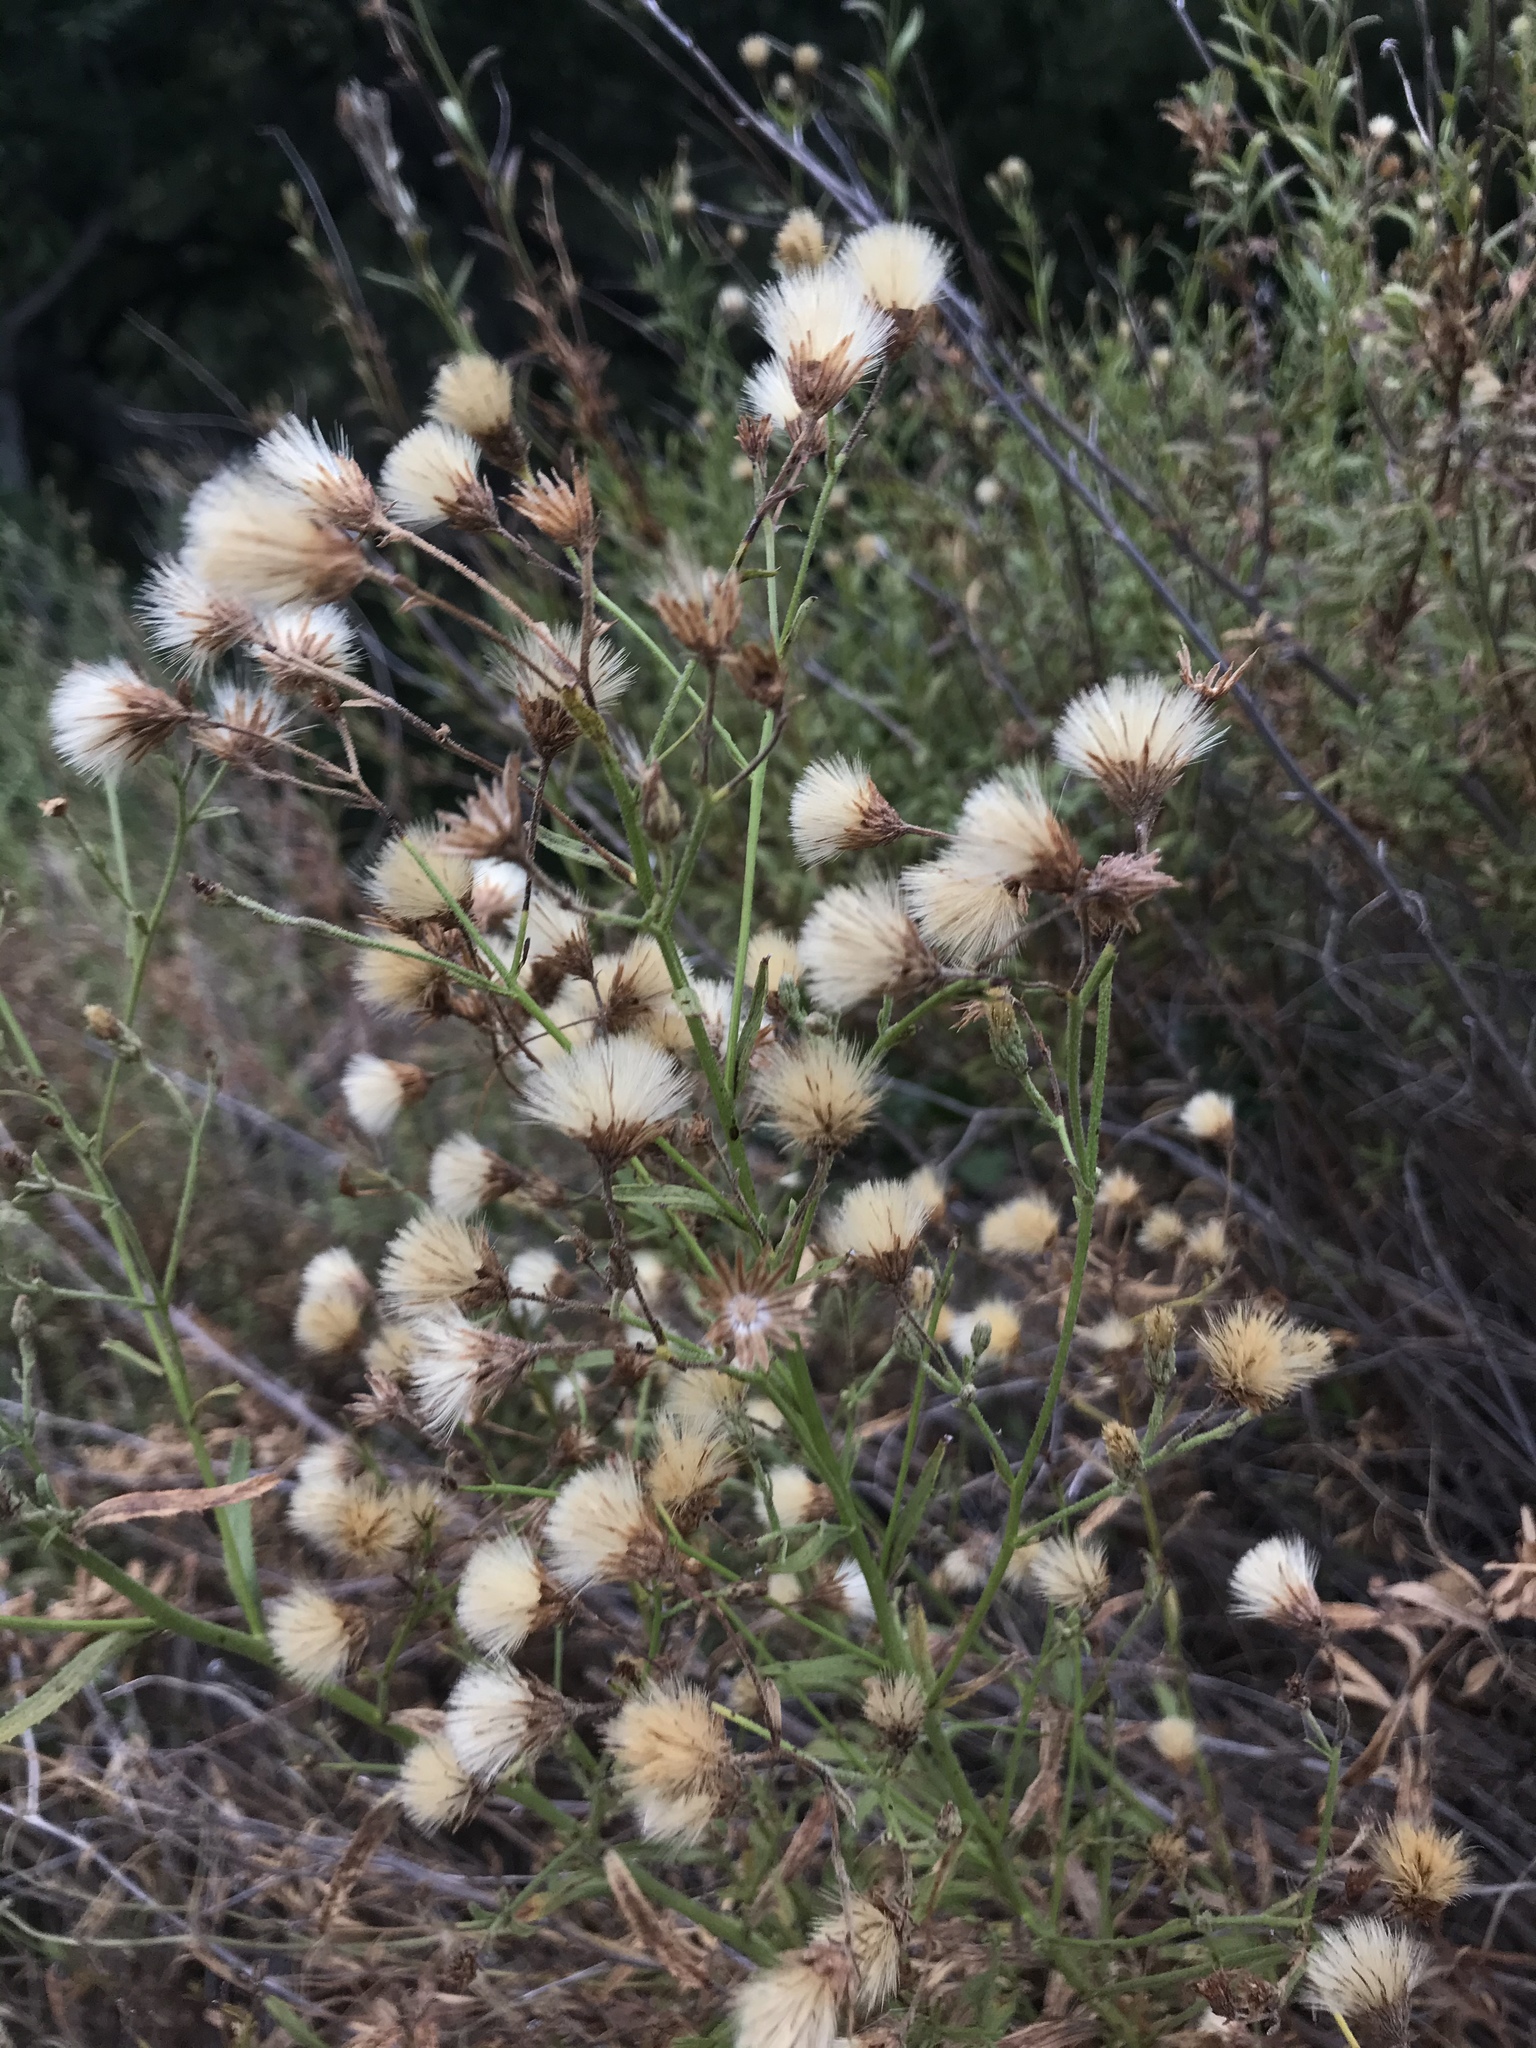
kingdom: Plantae
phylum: Tracheophyta
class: Magnoliopsida
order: Asterales
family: Asteraceae
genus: Baccharis
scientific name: Baccharis plummerae
